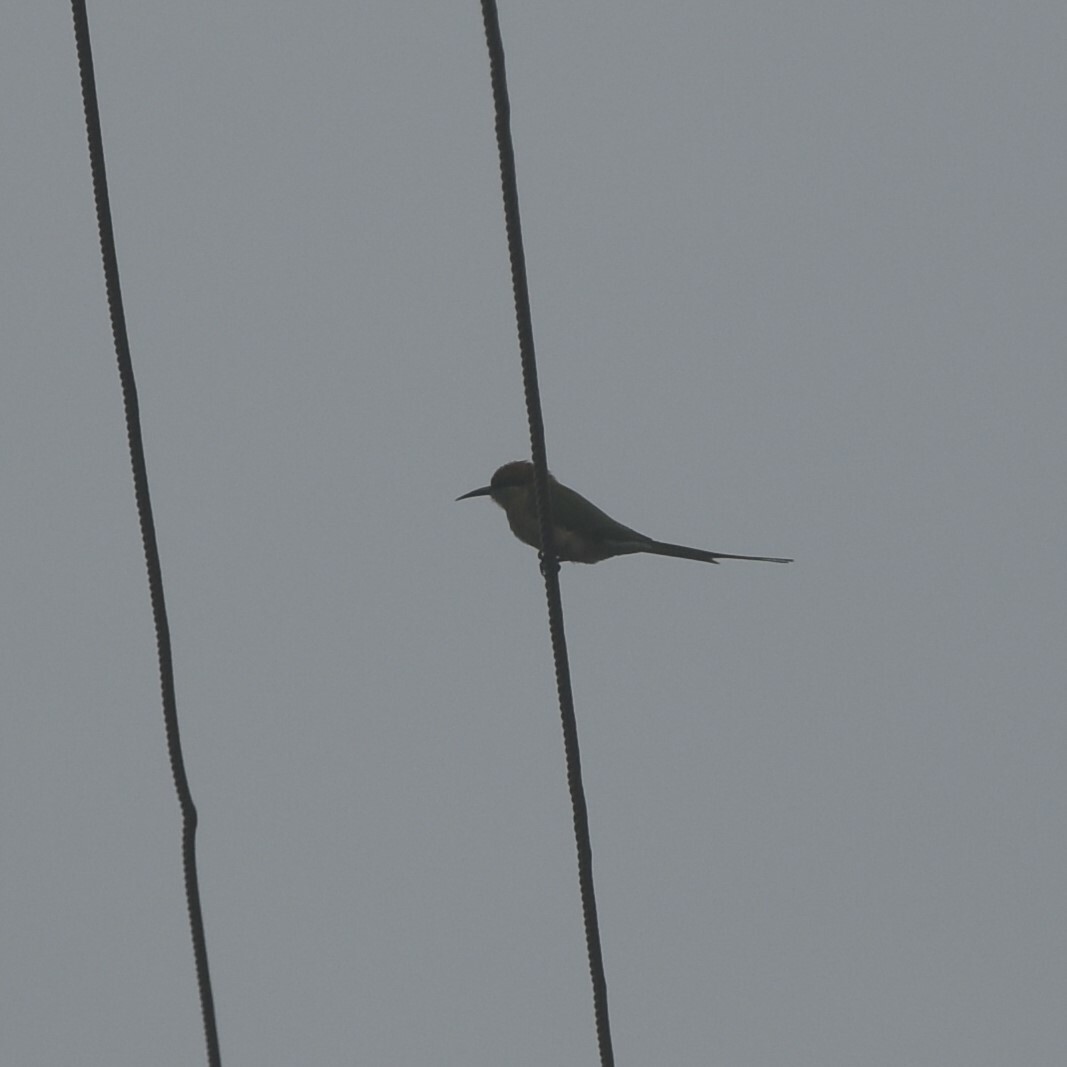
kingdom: Animalia
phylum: Chordata
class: Aves
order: Coraciiformes
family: Meropidae
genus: Merops
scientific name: Merops orientalis
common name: Green bee-eater
